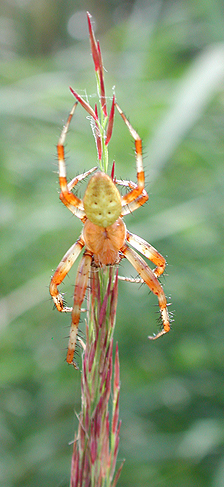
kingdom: Animalia
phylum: Arthropoda
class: Arachnida
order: Araneae
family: Araneidae
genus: Araneus
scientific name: Araneus quadratus
